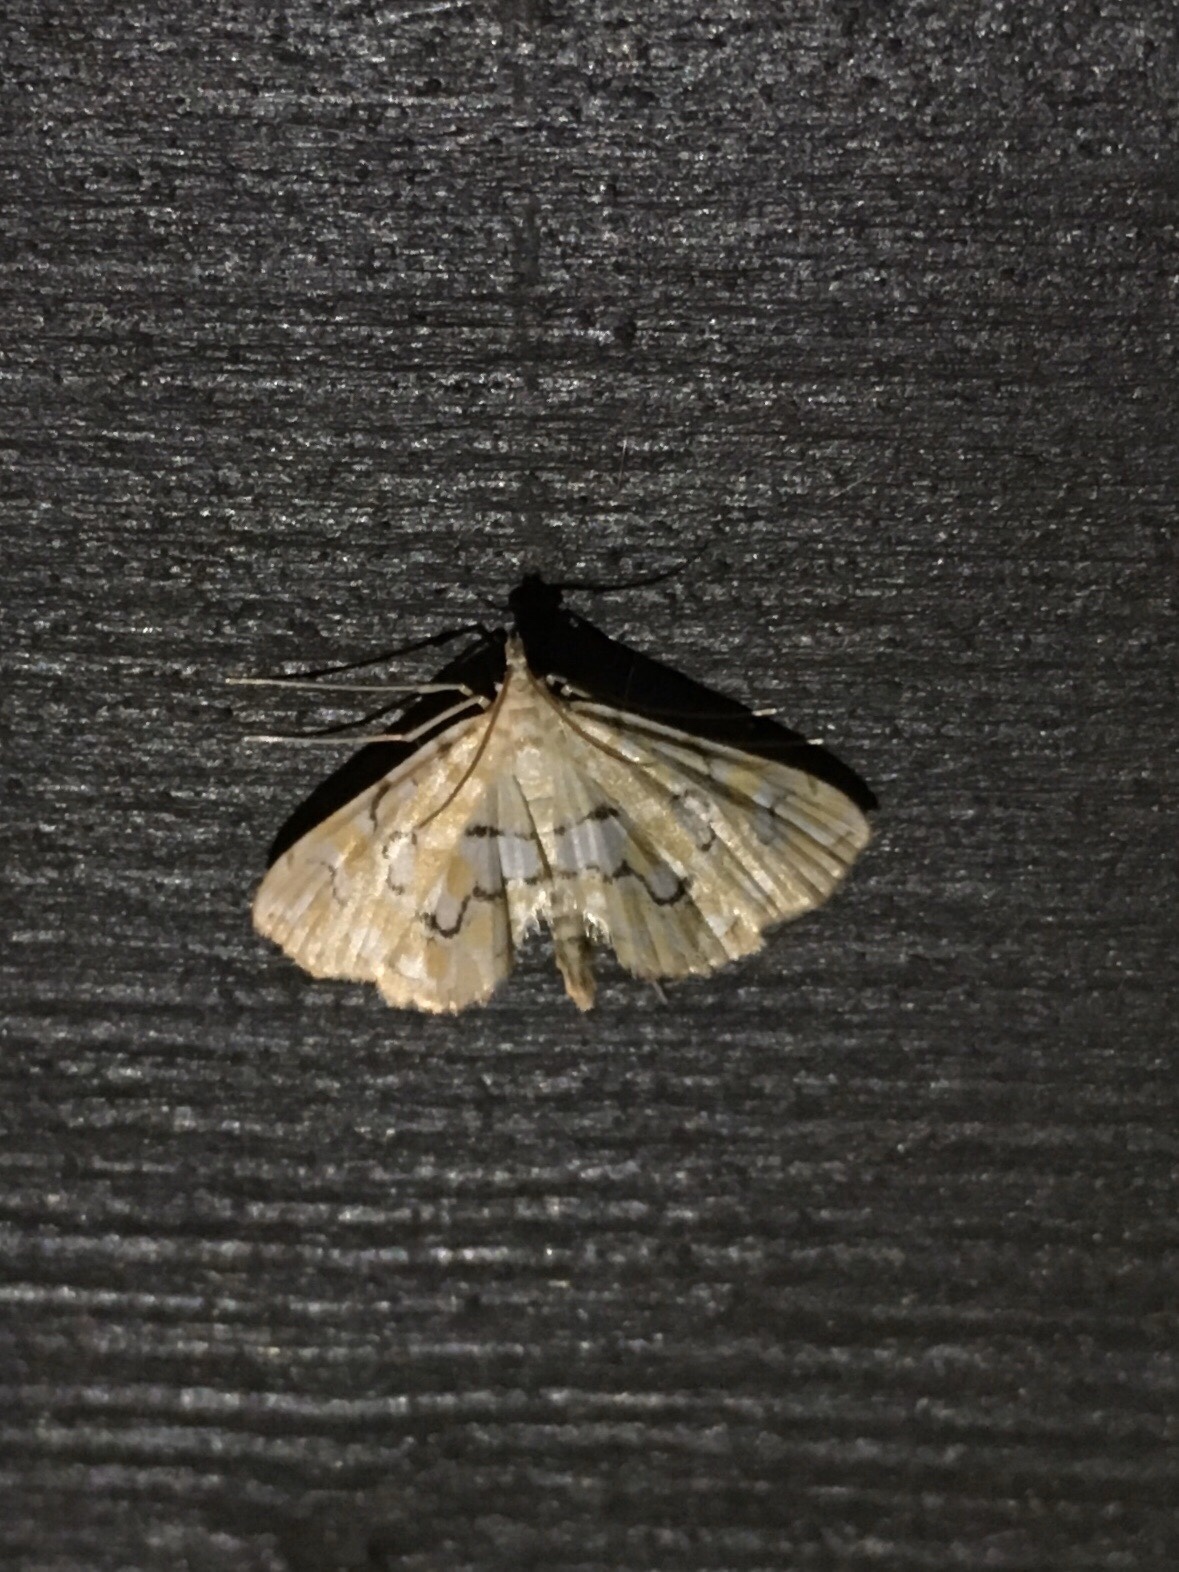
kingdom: Animalia
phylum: Arthropoda
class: Insecta
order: Lepidoptera
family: Crambidae
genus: Elophila
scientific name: Elophila icciusalis
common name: Pondside pyralid moth
